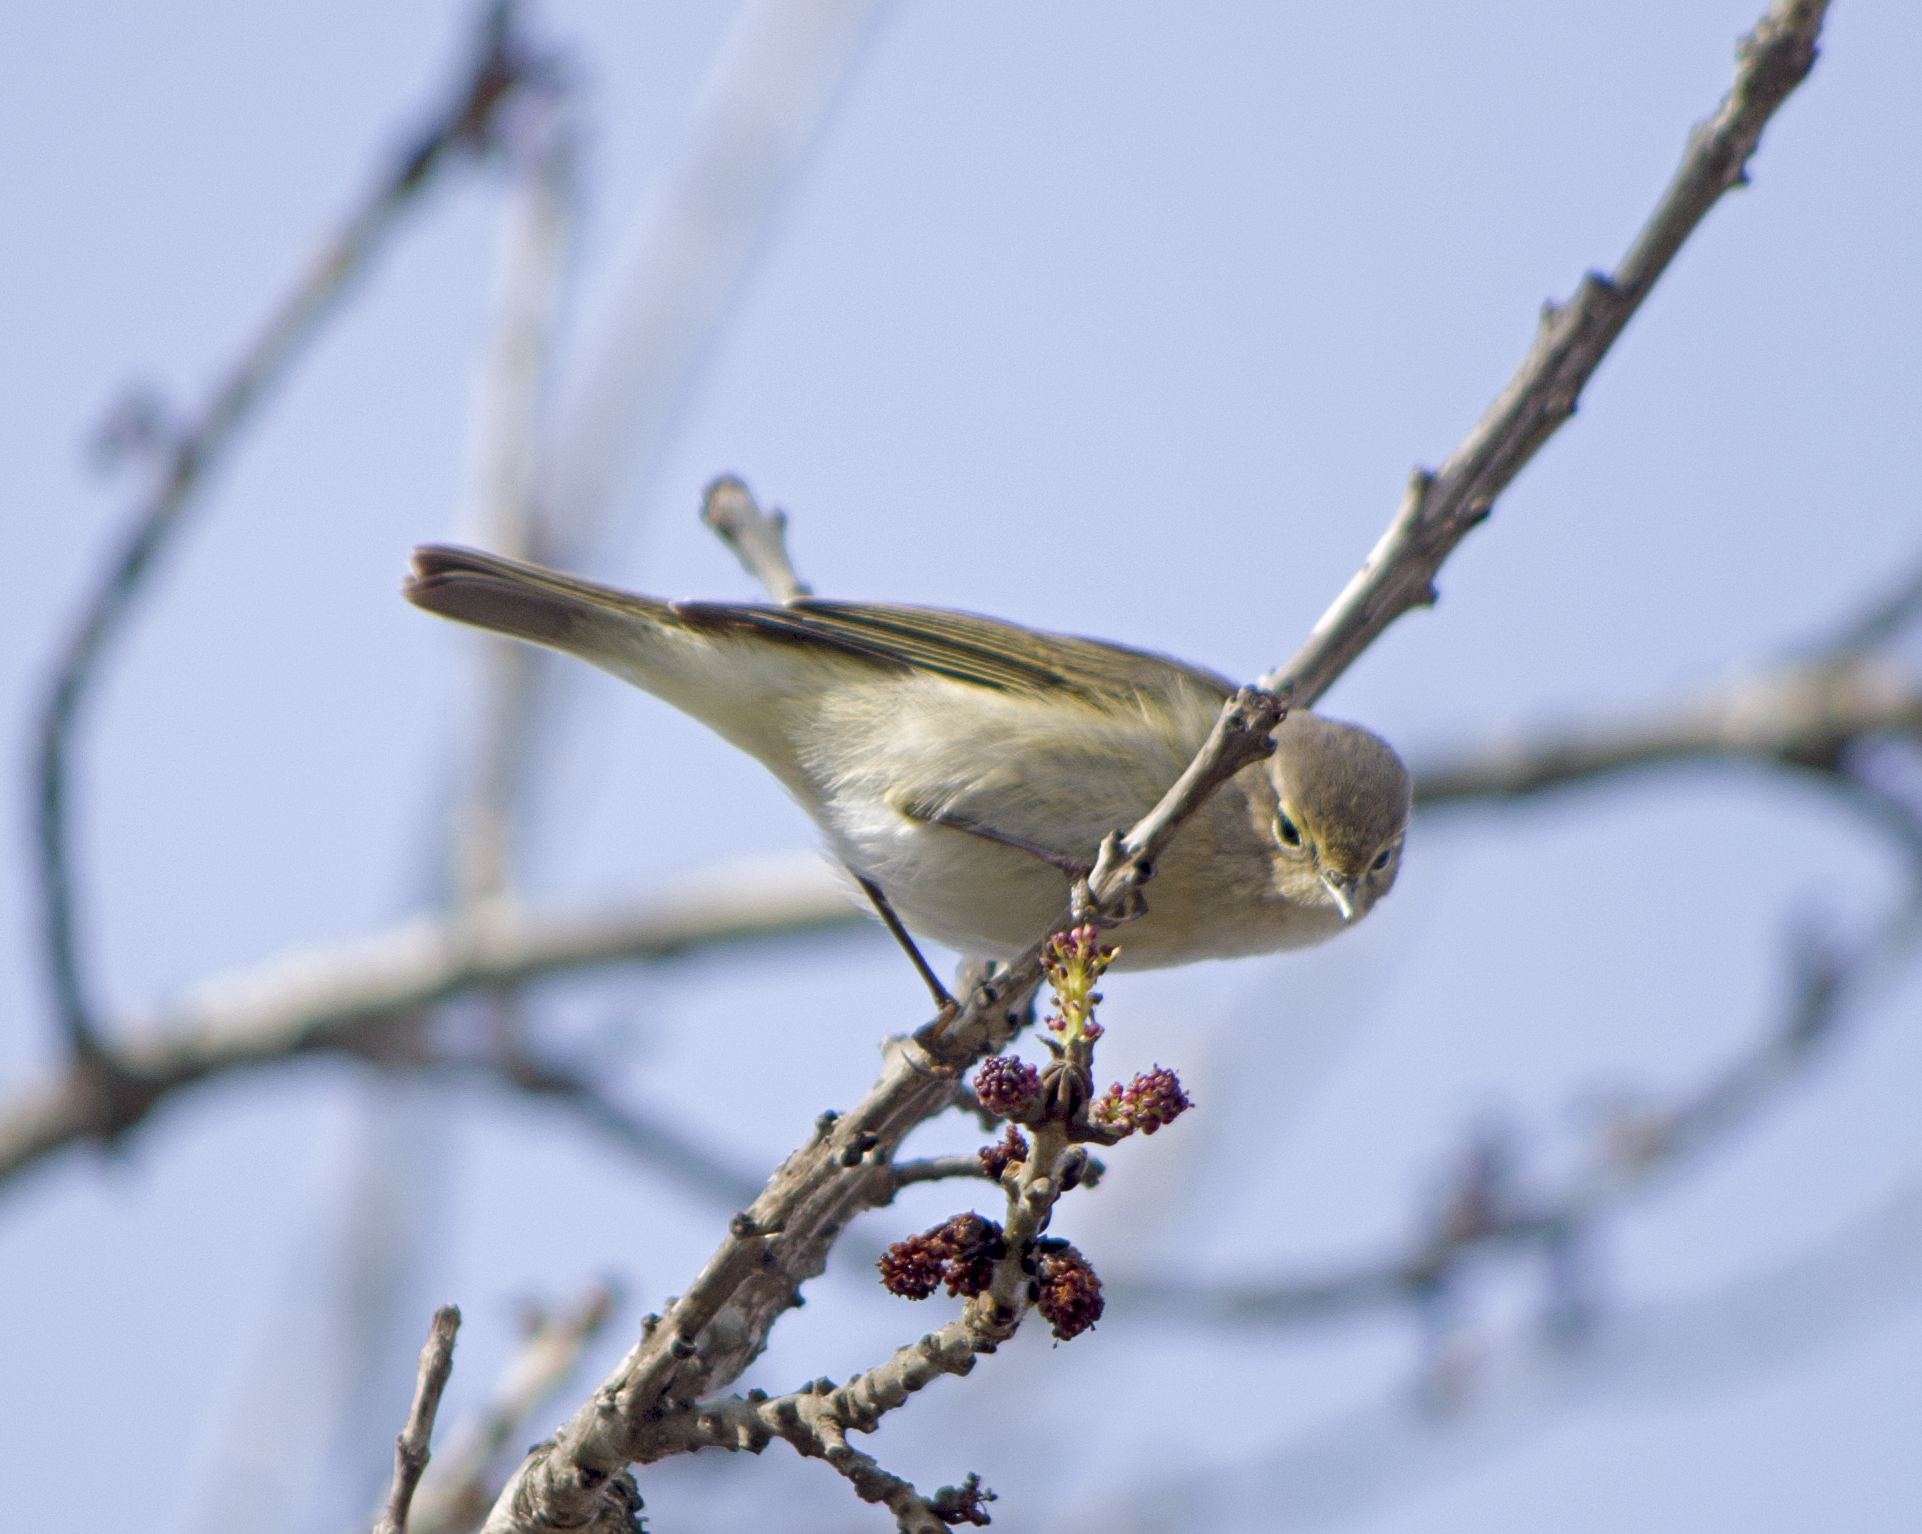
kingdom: Animalia
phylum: Chordata
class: Aves
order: Passeriformes
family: Phylloscopidae
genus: Phylloscopus
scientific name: Phylloscopus collybita
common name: Common chiffchaff
